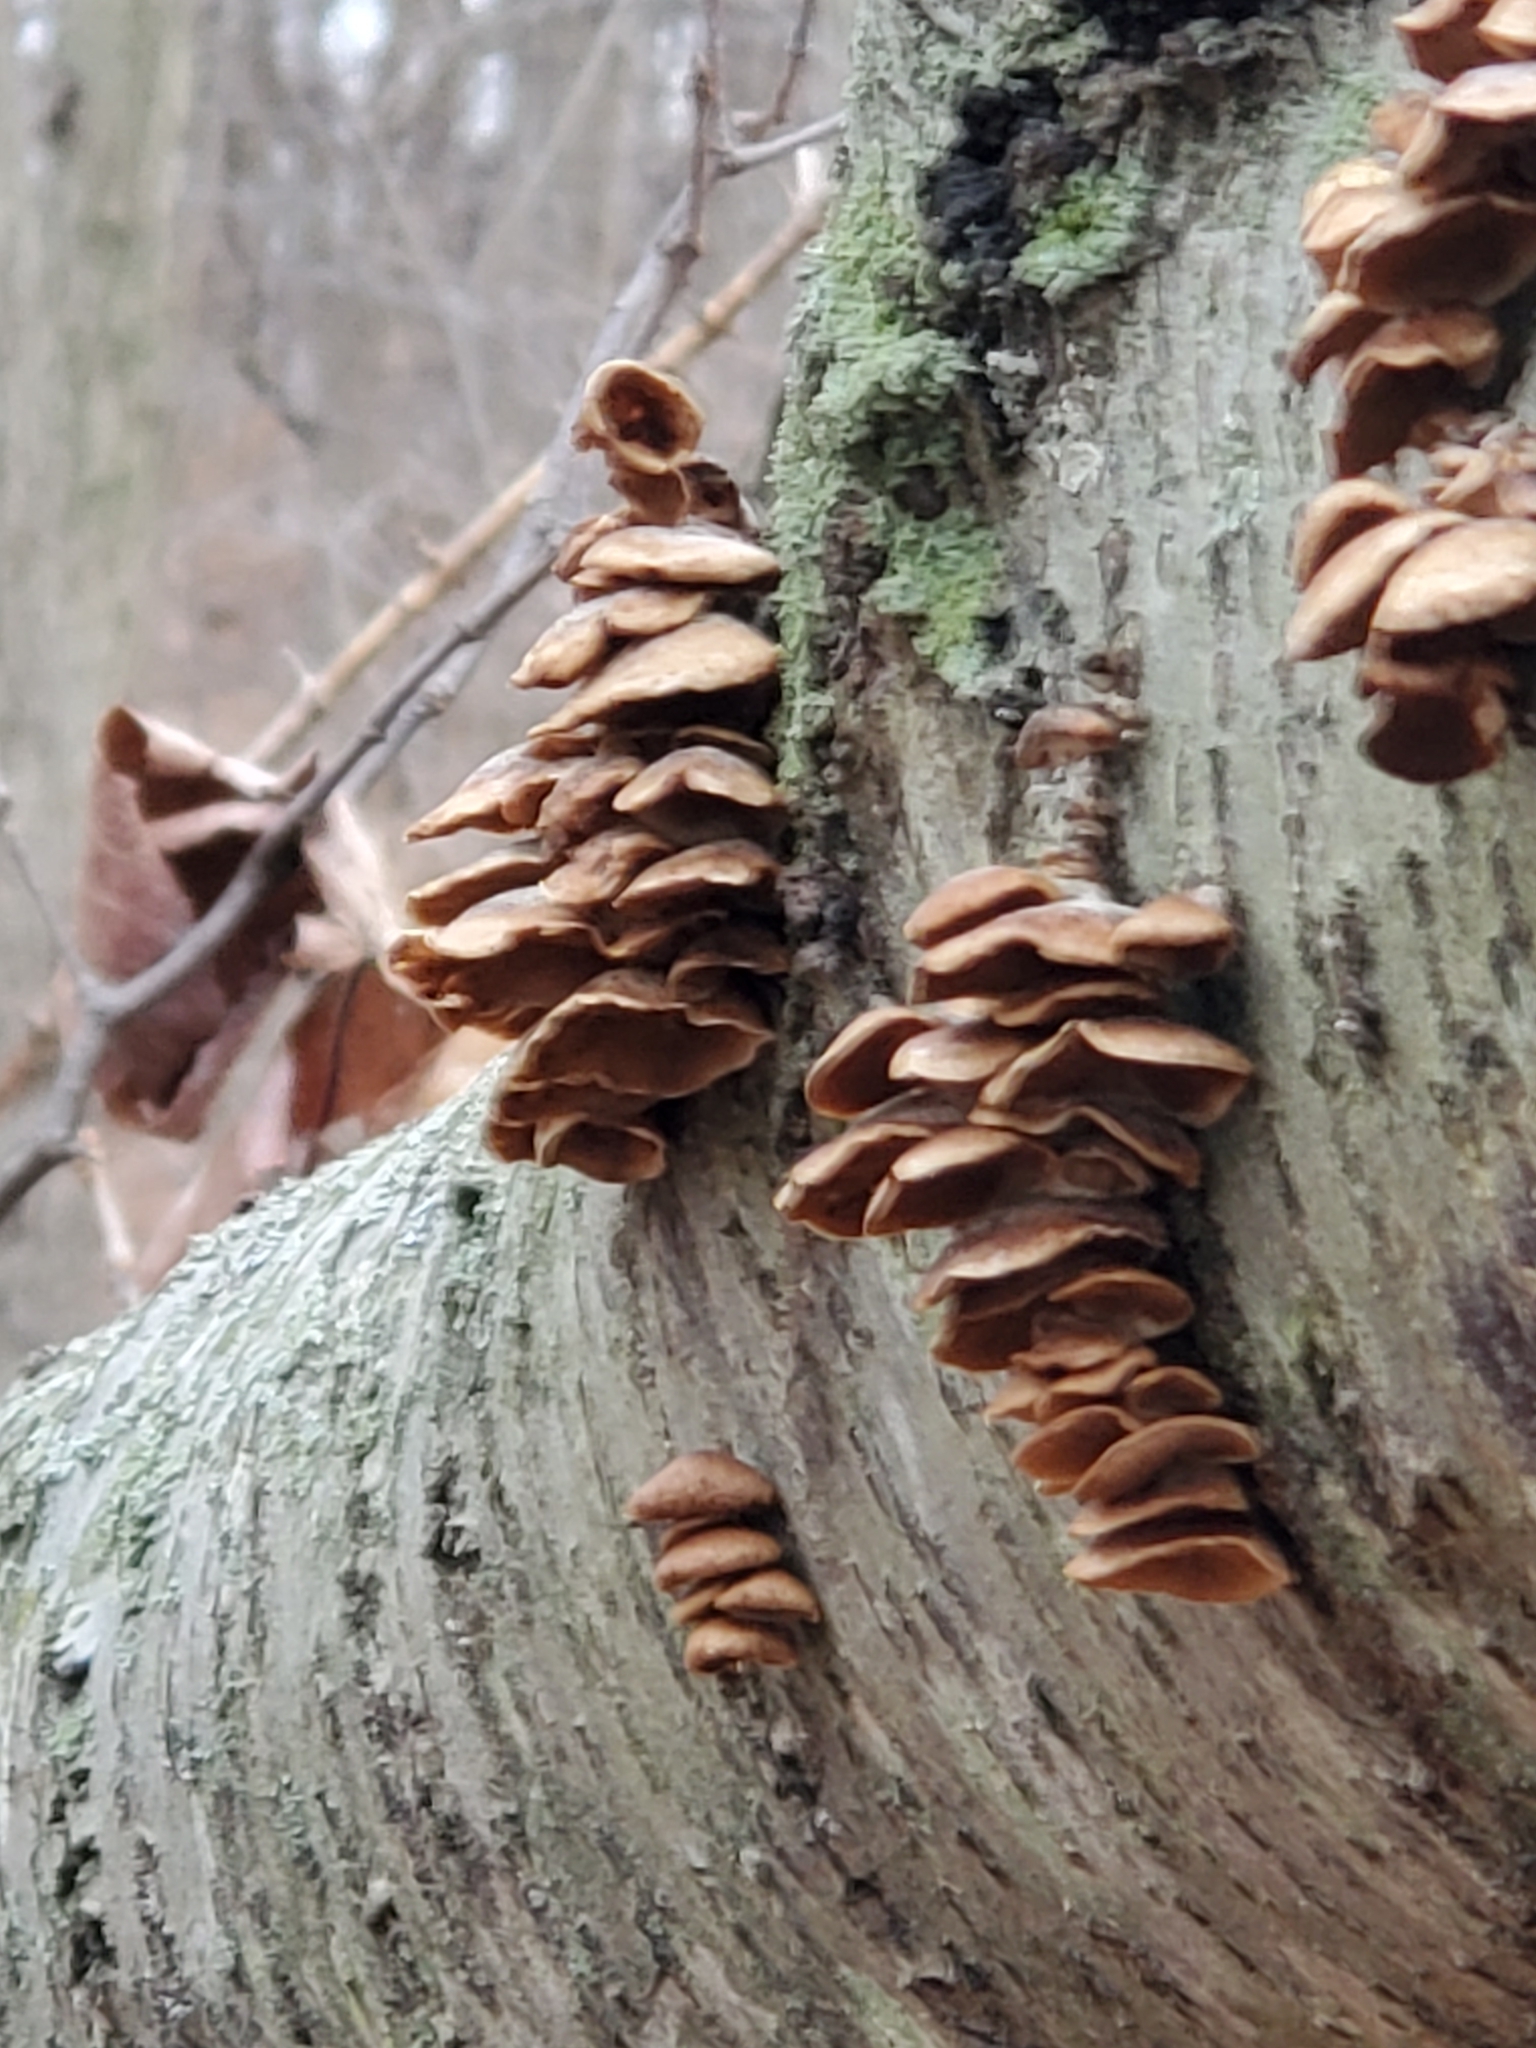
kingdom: Fungi
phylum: Basidiomycota
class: Agaricomycetes
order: Agaricales
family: Mycenaceae
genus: Panellus
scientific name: Panellus stipticus
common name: Bitter oysterling
